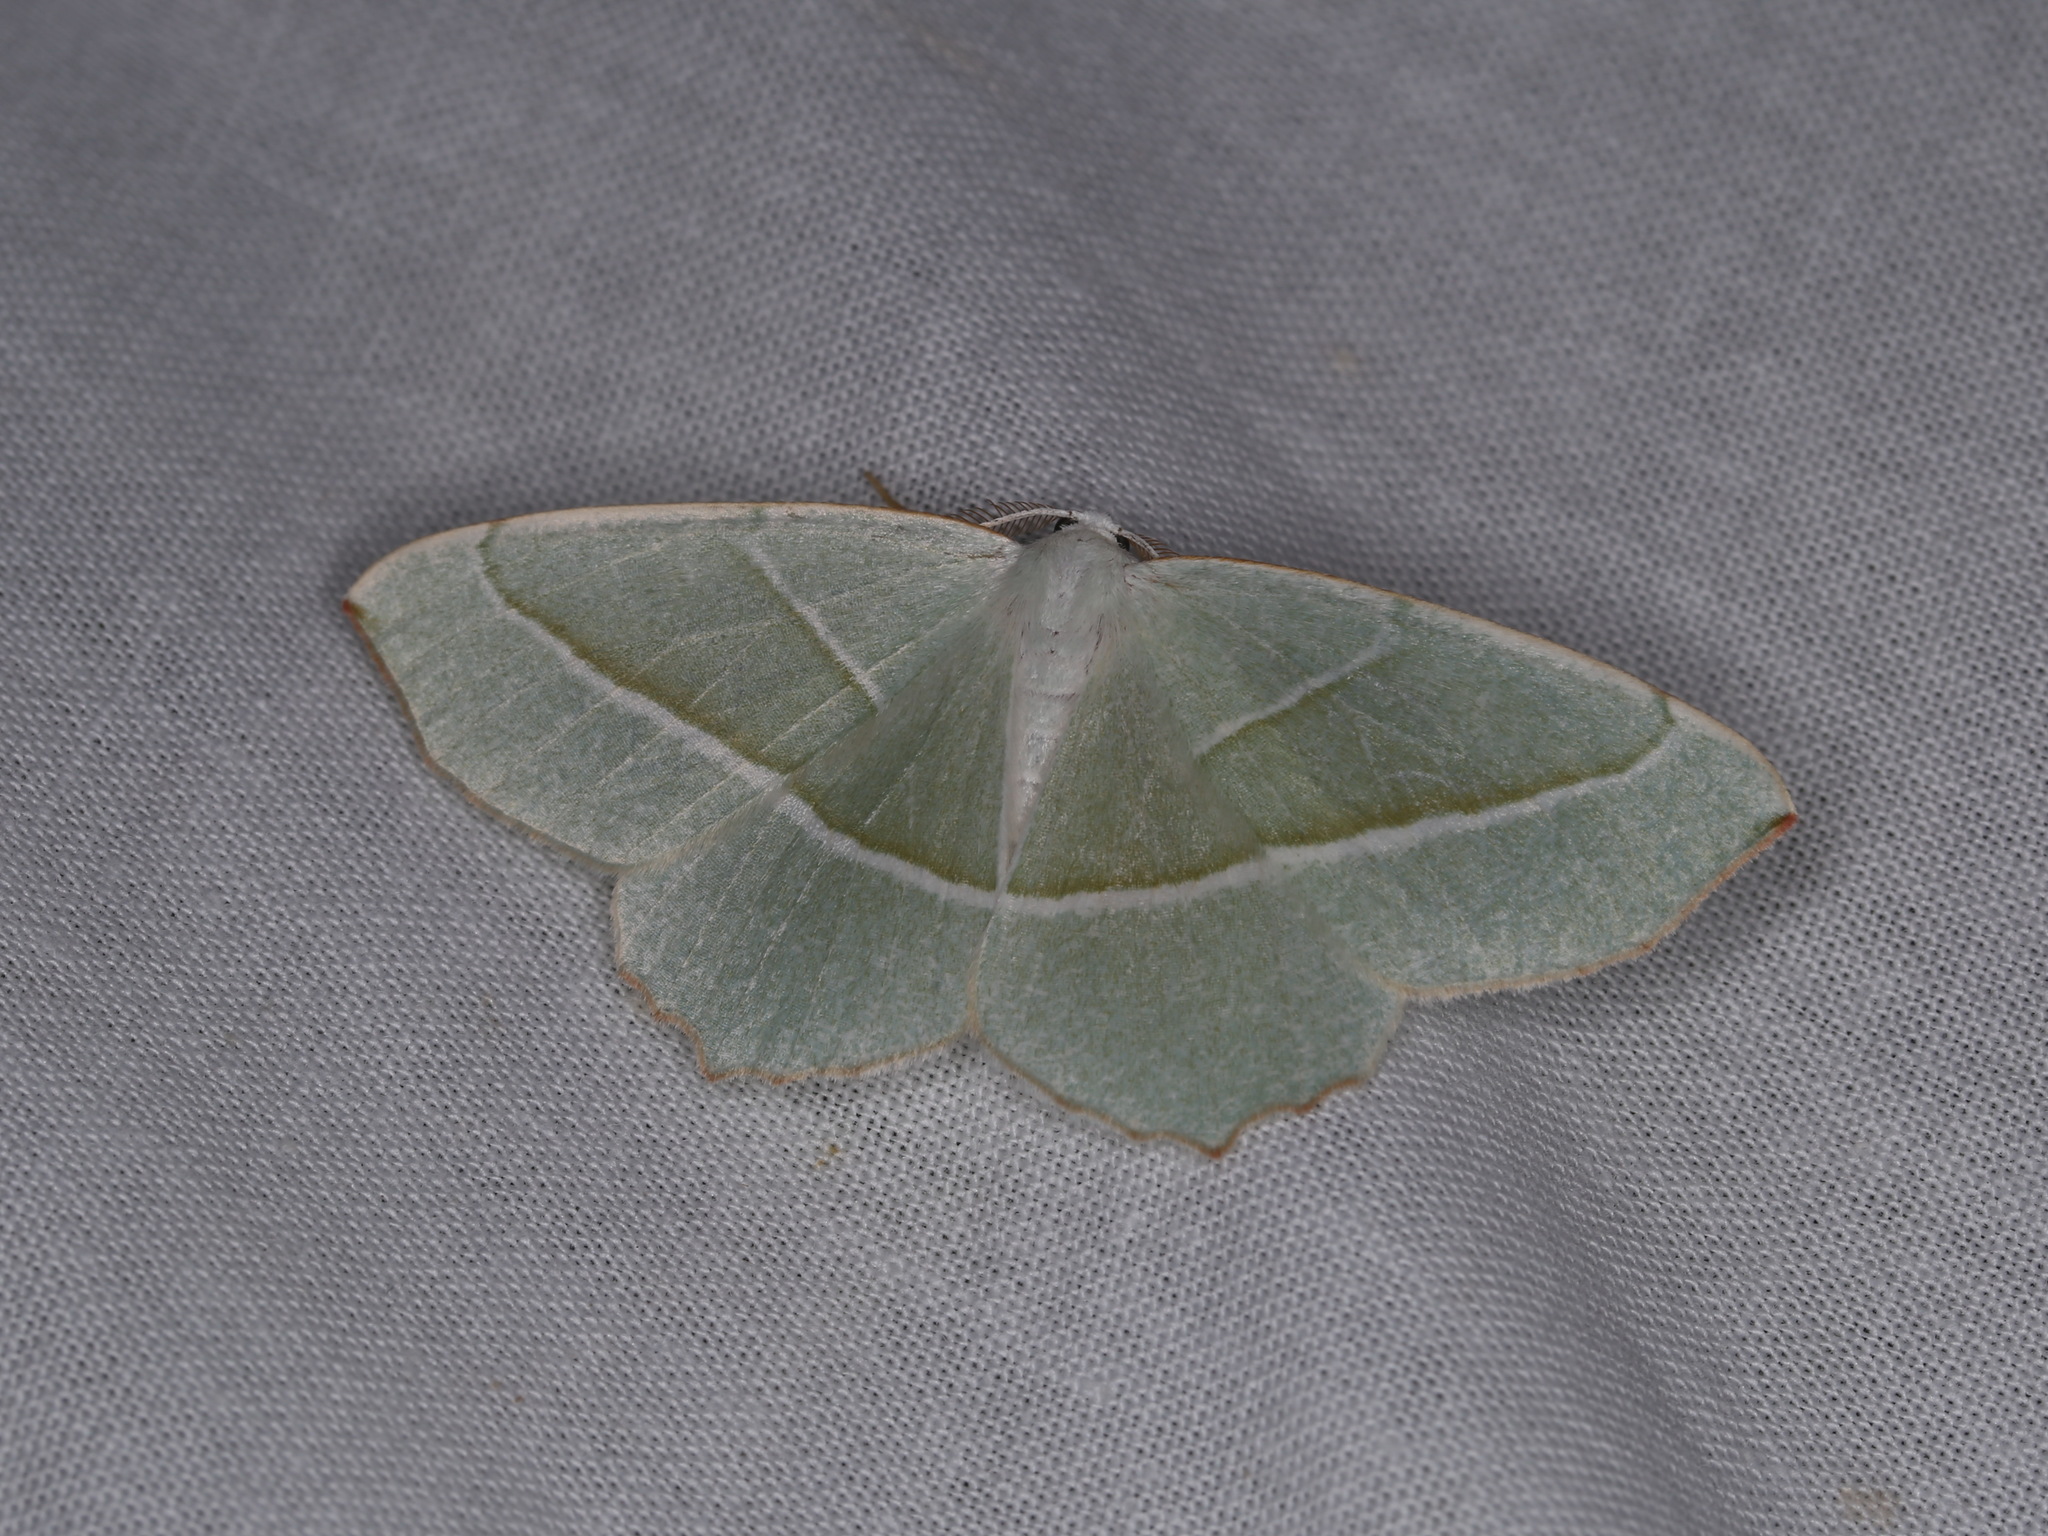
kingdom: Animalia
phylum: Arthropoda
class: Insecta
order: Lepidoptera
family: Geometridae
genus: Campaea
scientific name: Campaea margaritaria
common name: Light emerald
